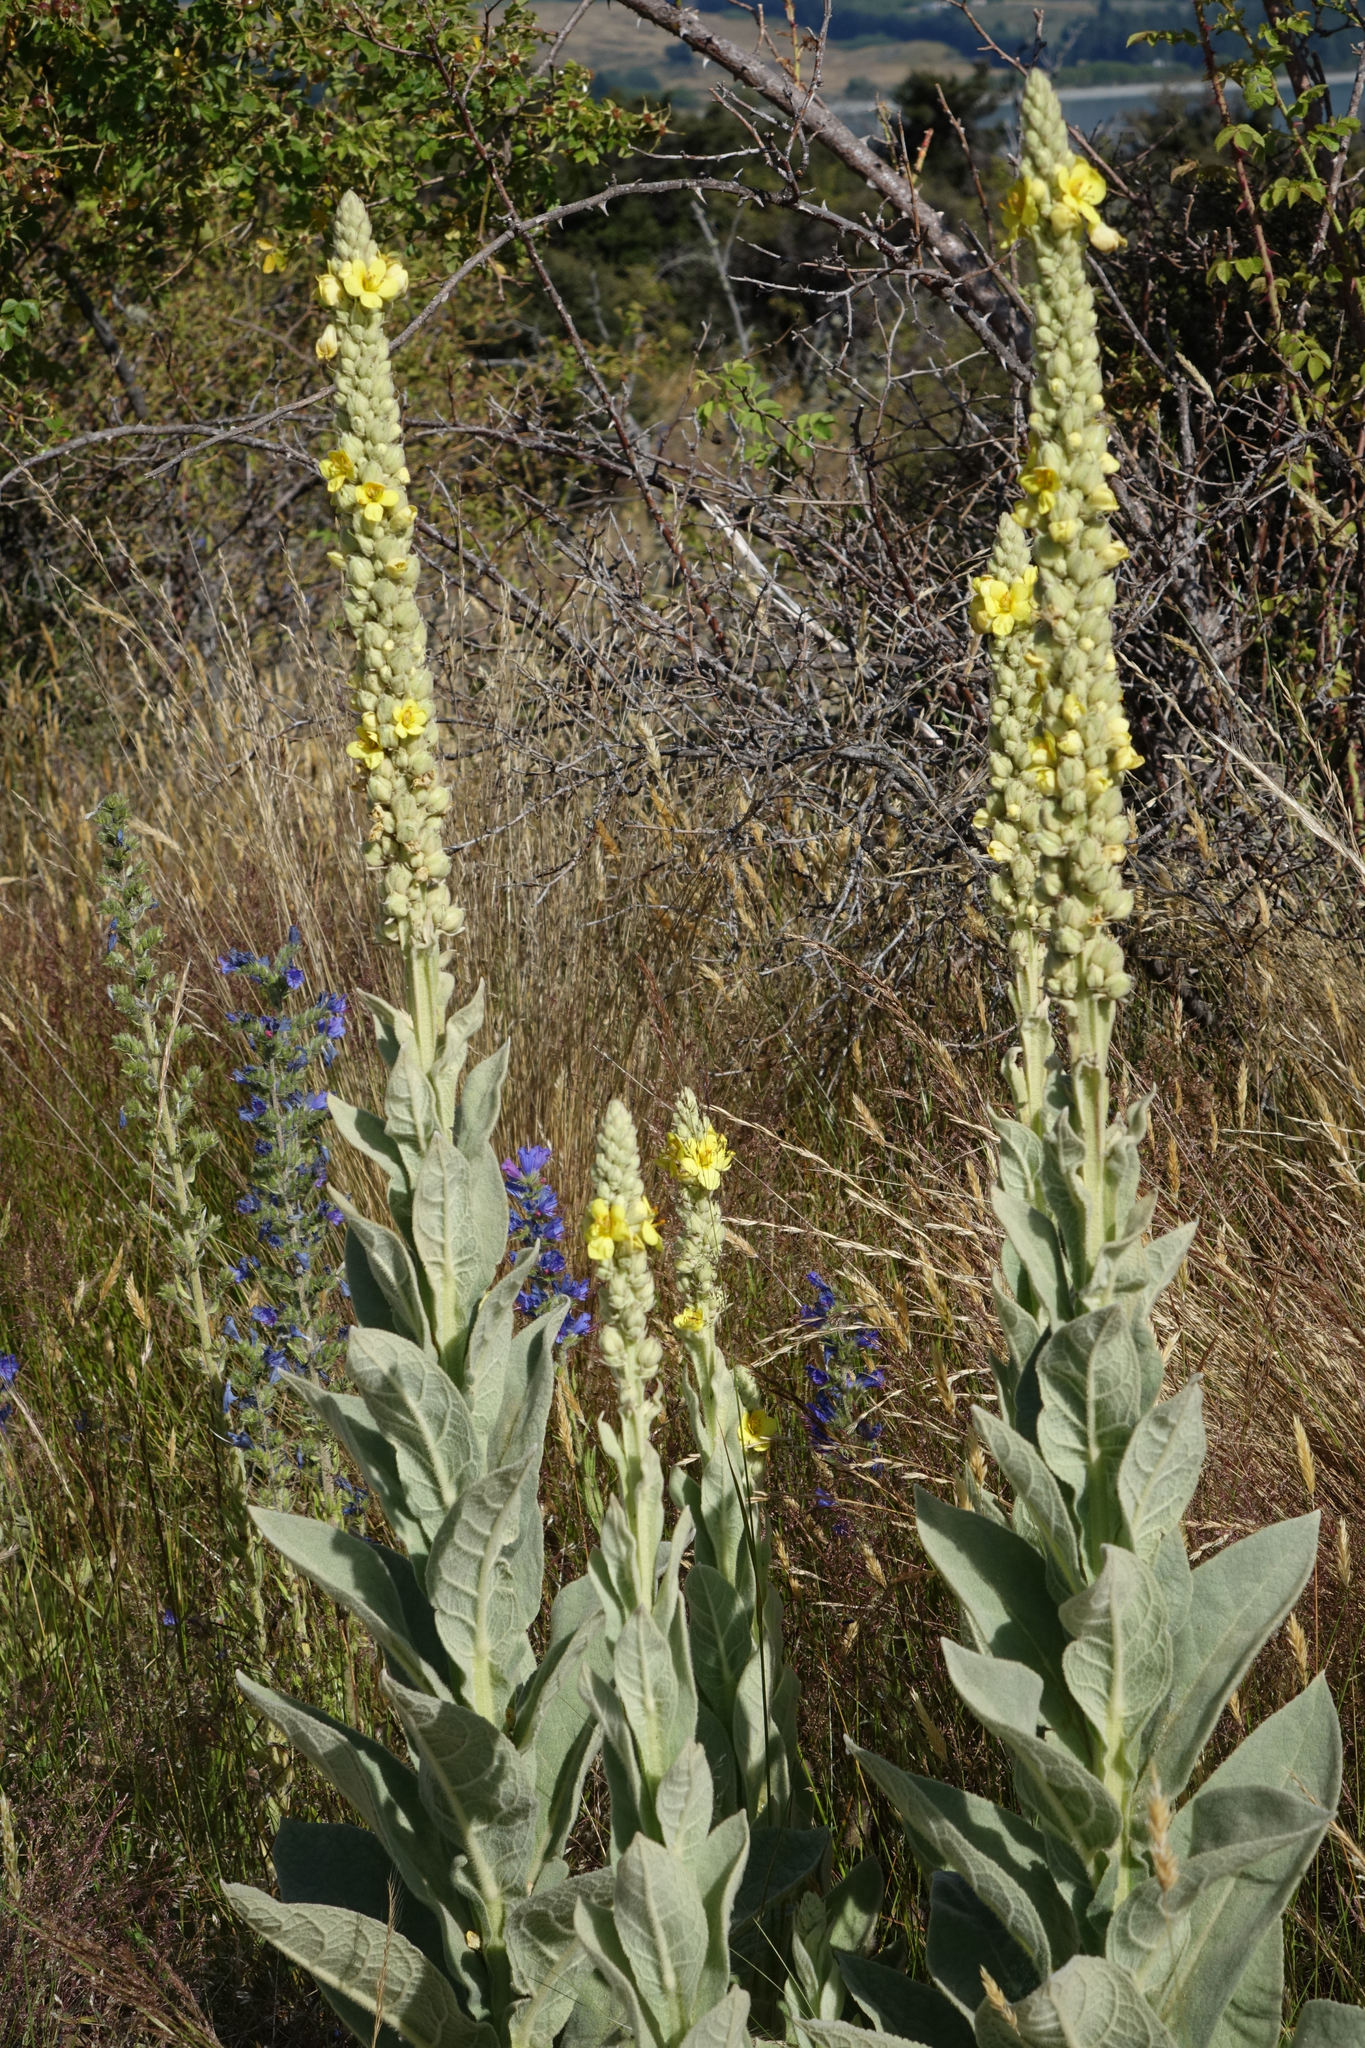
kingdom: Plantae
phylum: Tracheophyta
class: Magnoliopsida
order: Lamiales
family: Scrophulariaceae
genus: Verbascum
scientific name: Verbascum thapsus
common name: Common mullein
